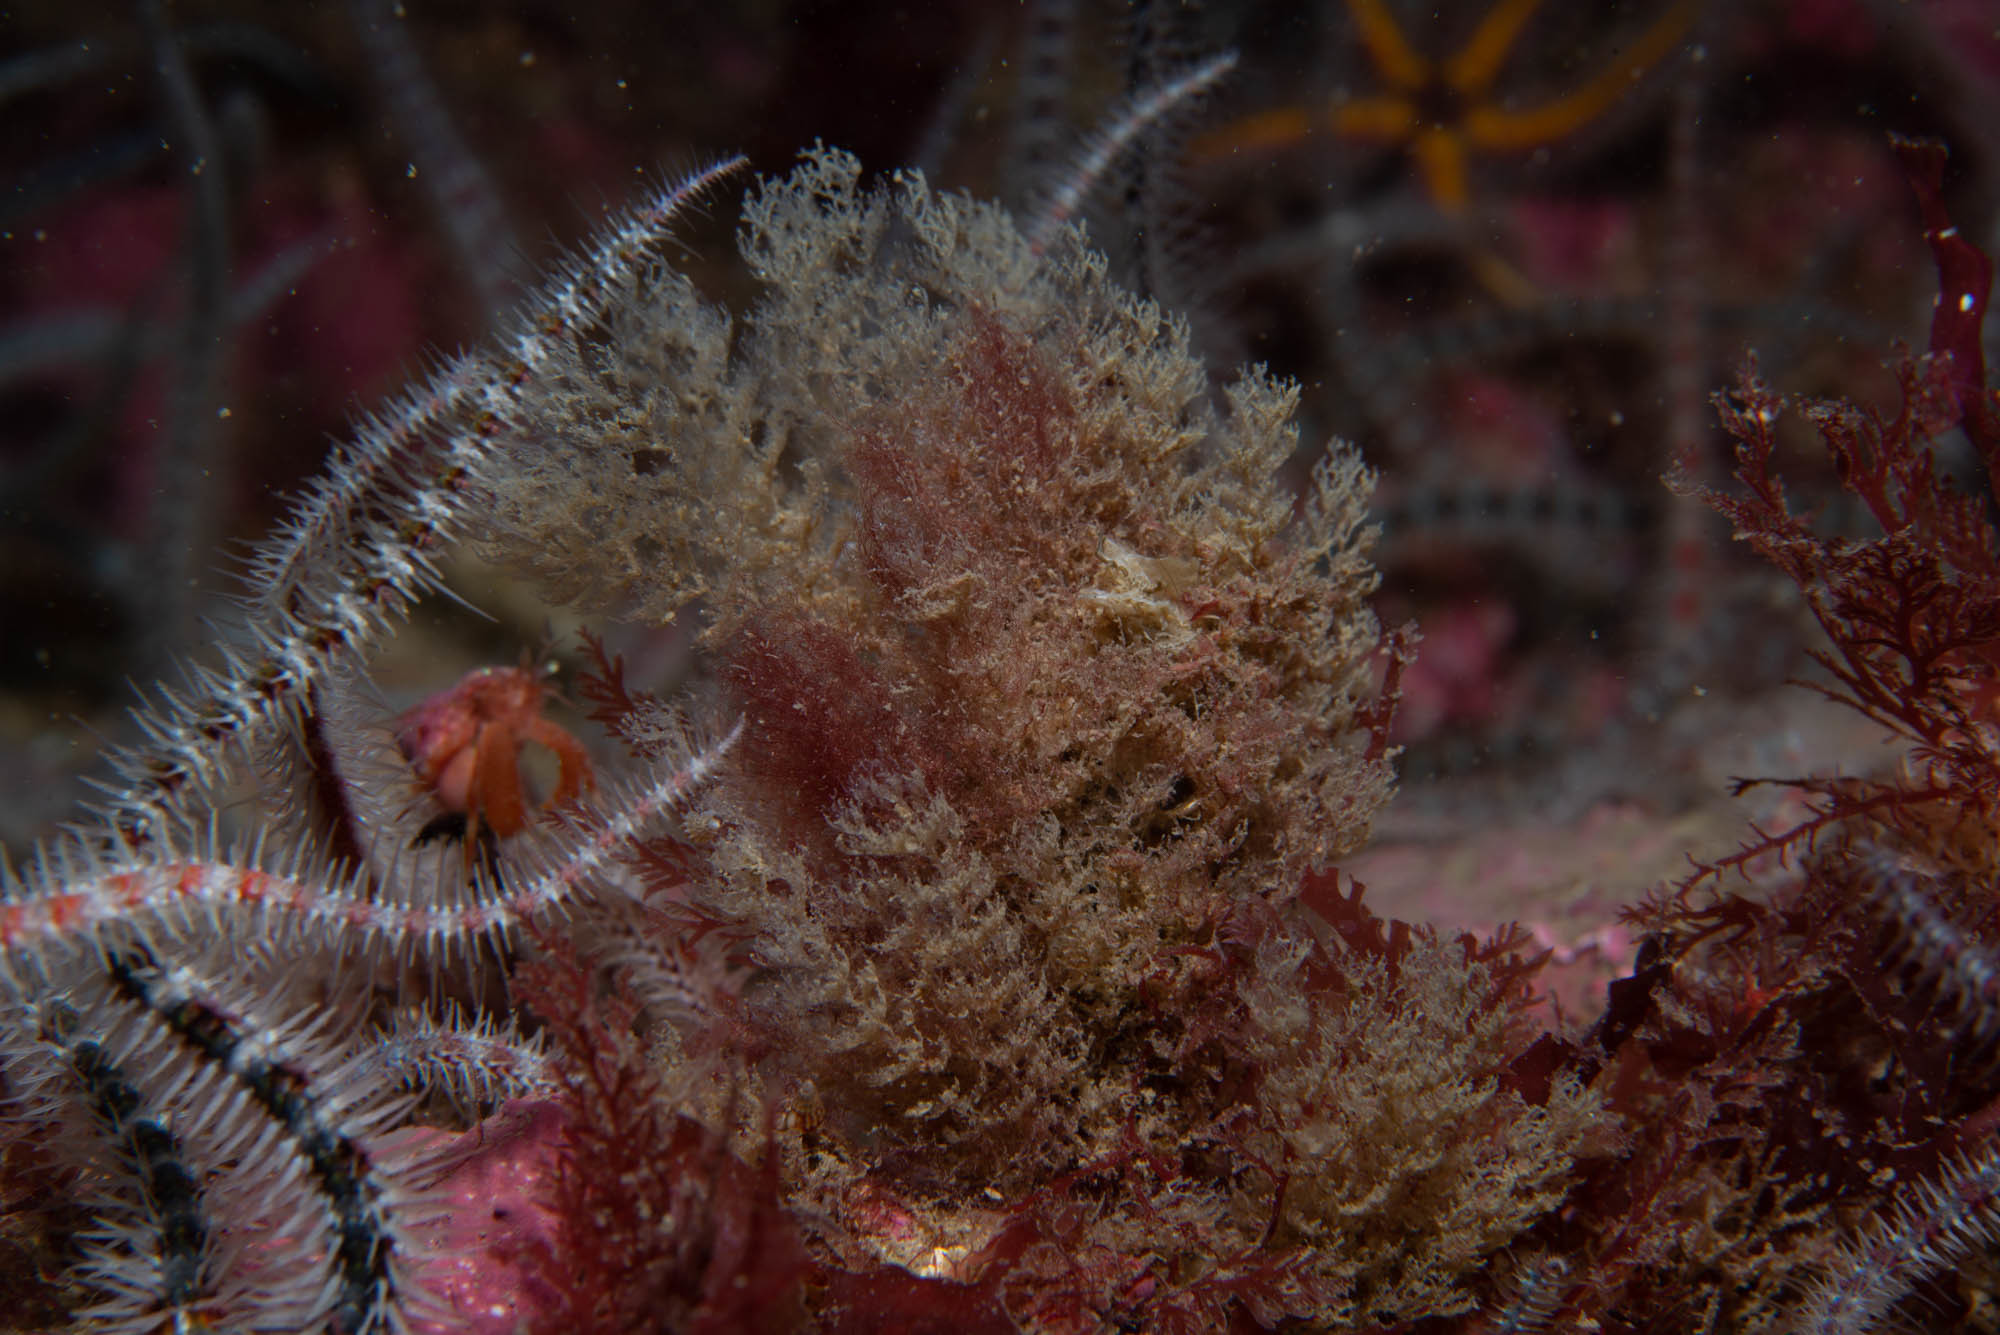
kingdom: Animalia
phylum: Bryozoa
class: Gymnolaemata
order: Ctenostomatida
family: Vesiculariidae
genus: Vesicularia
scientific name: Vesicularia spinosa
